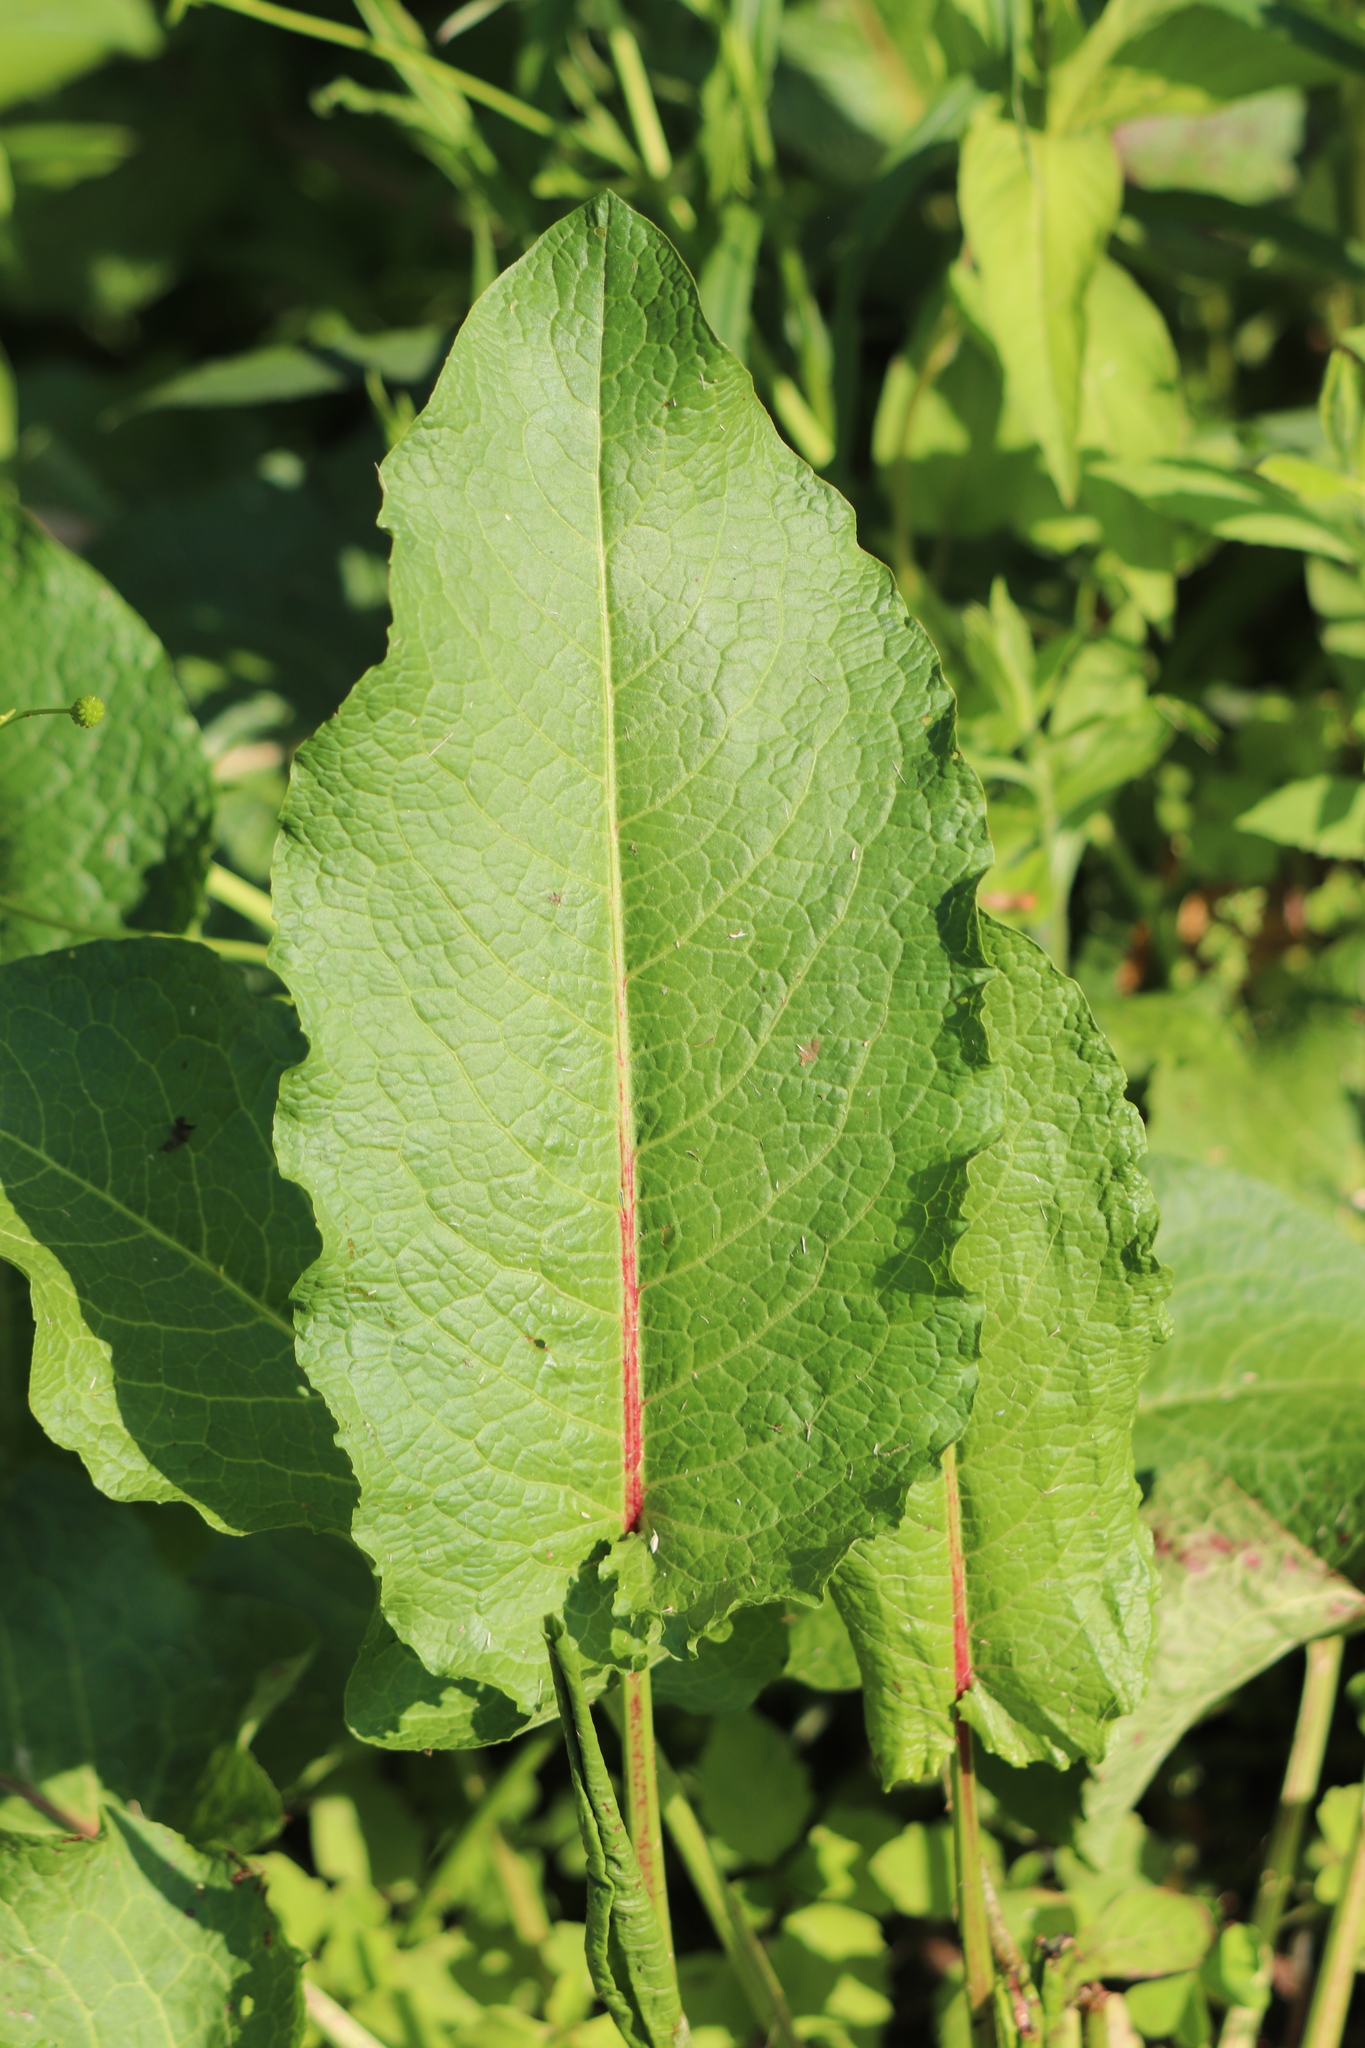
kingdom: Plantae
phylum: Tracheophyta
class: Magnoliopsida
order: Caryophyllales
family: Polygonaceae
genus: Rumex
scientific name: Rumex obtusifolius
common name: Bitter dock
